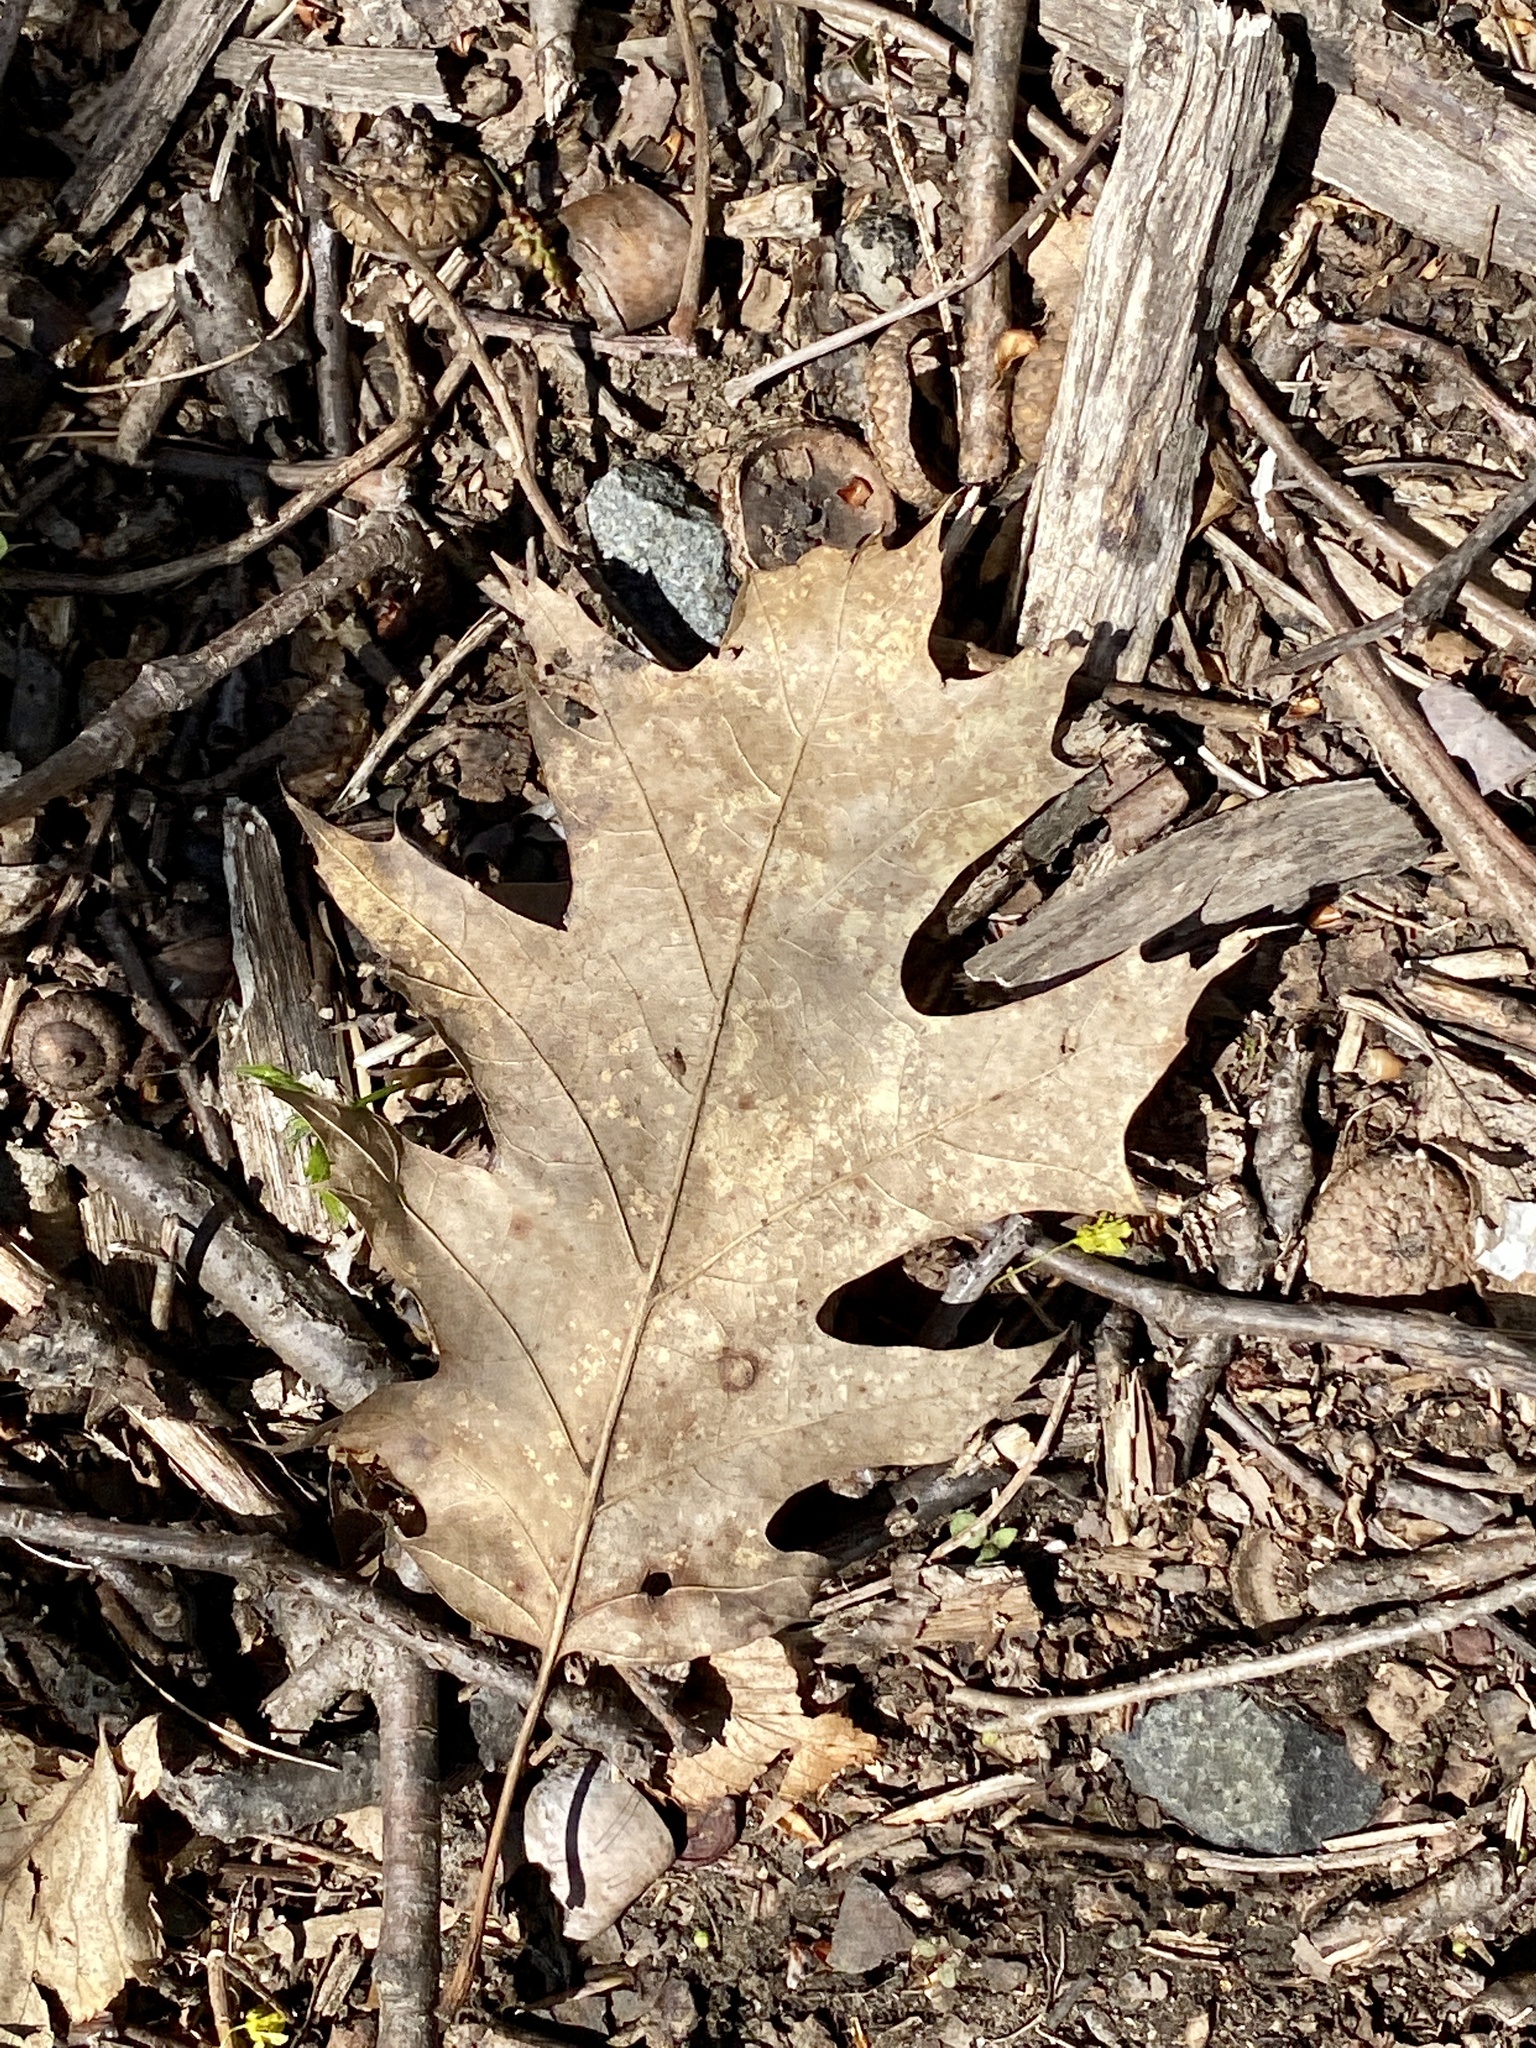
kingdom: Plantae
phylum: Tracheophyta
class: Magnoliopsida
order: Fagales
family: Fagaceae
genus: Quercus
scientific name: Quercus rubra
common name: Red oak
